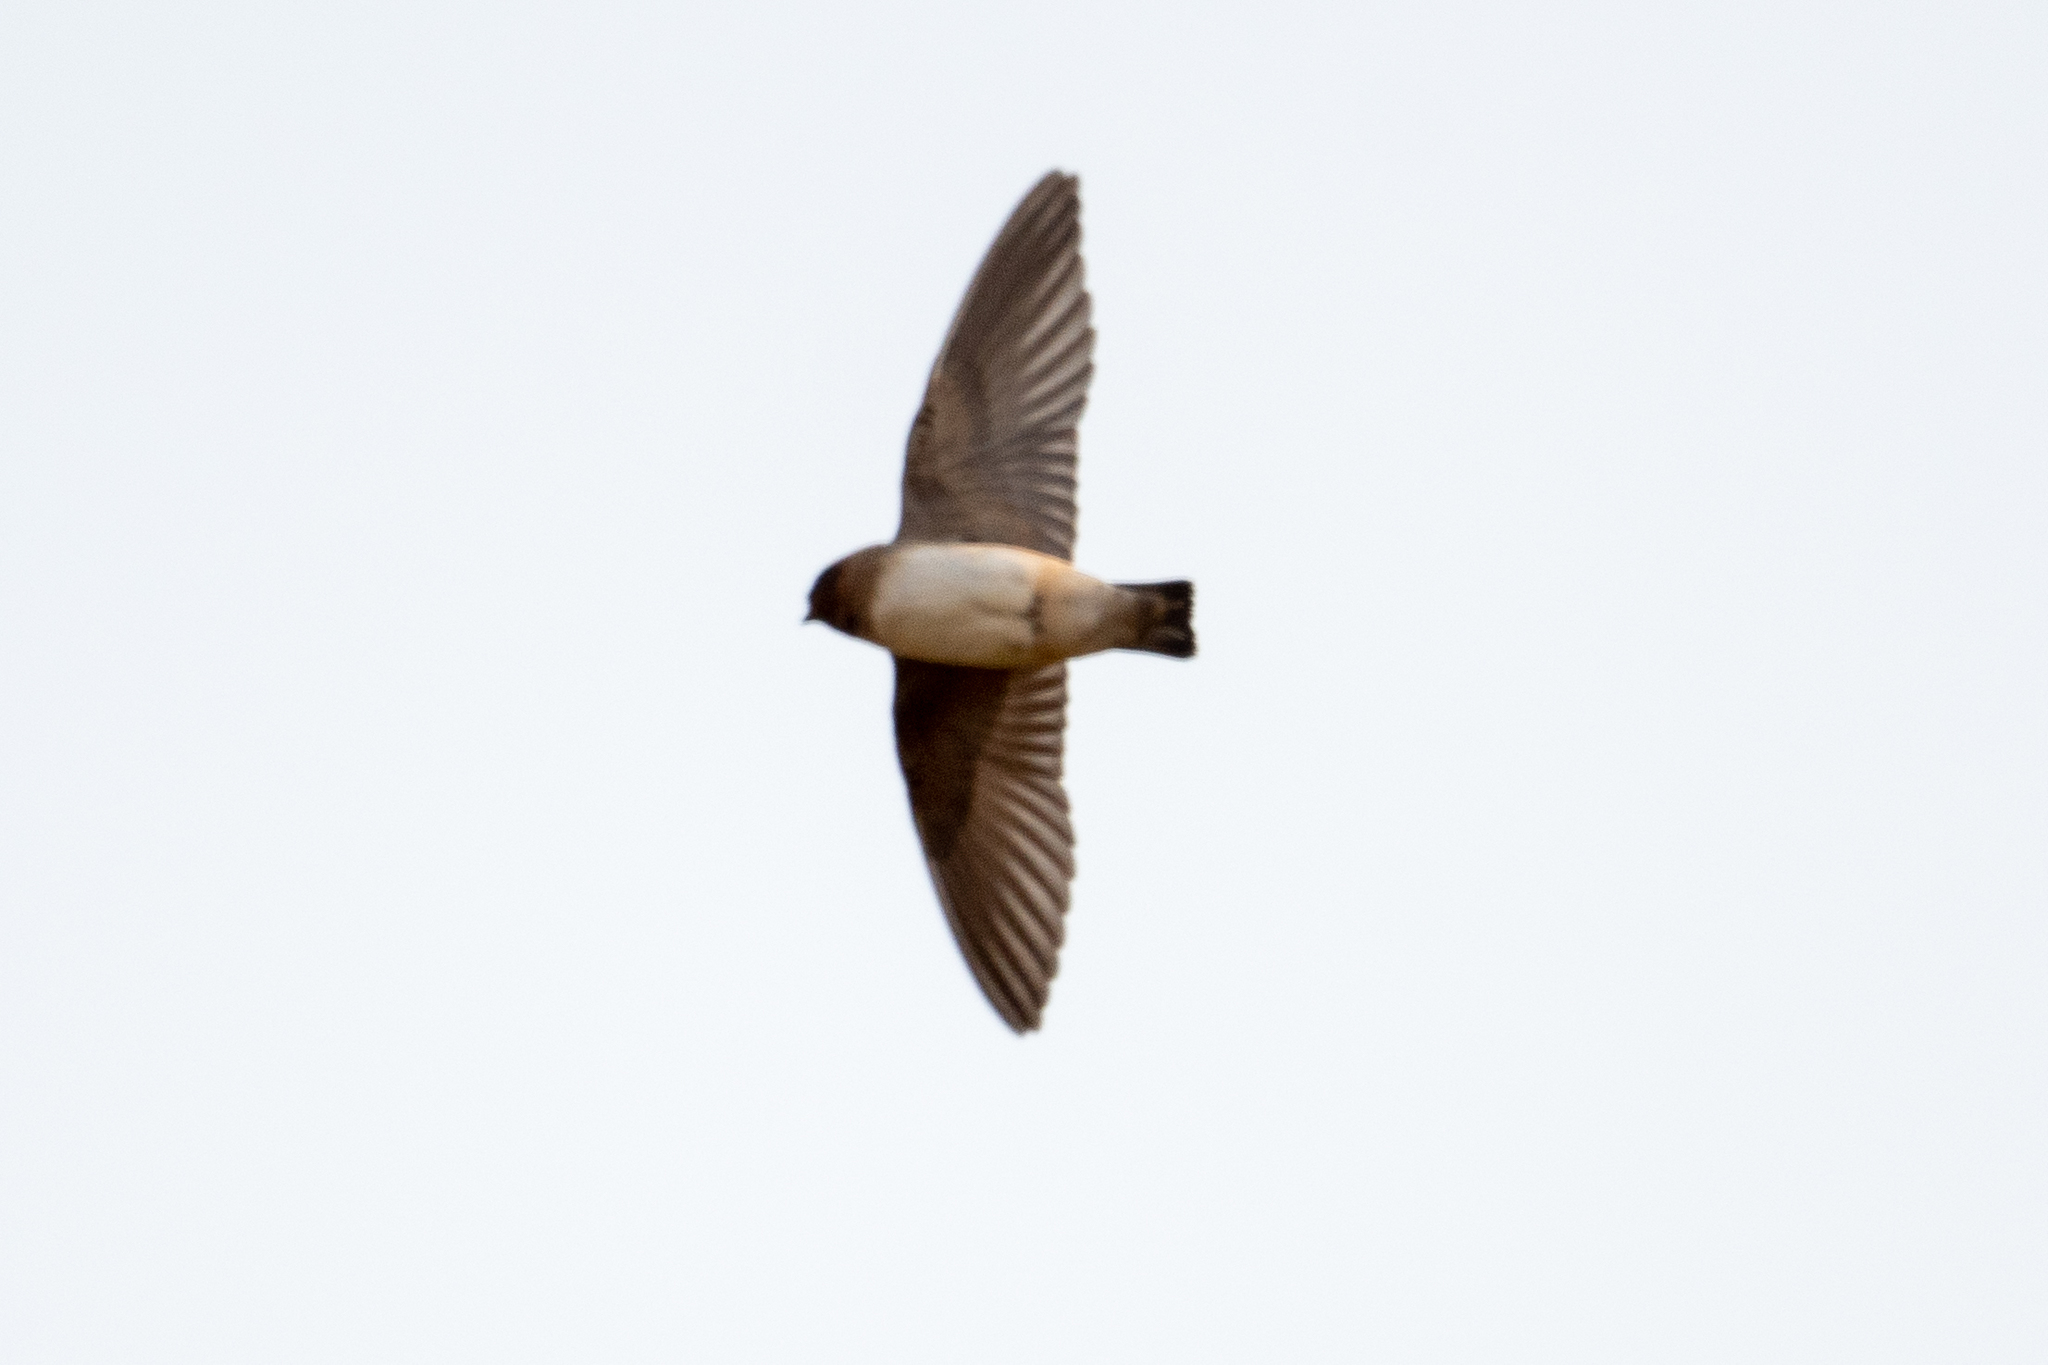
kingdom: Animalia
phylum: Chordata
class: Aves
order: Passeriformes
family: Hirundinidae
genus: Petrochelidon
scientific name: Petrochelidon pyrrhonota
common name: American cliff swallow
